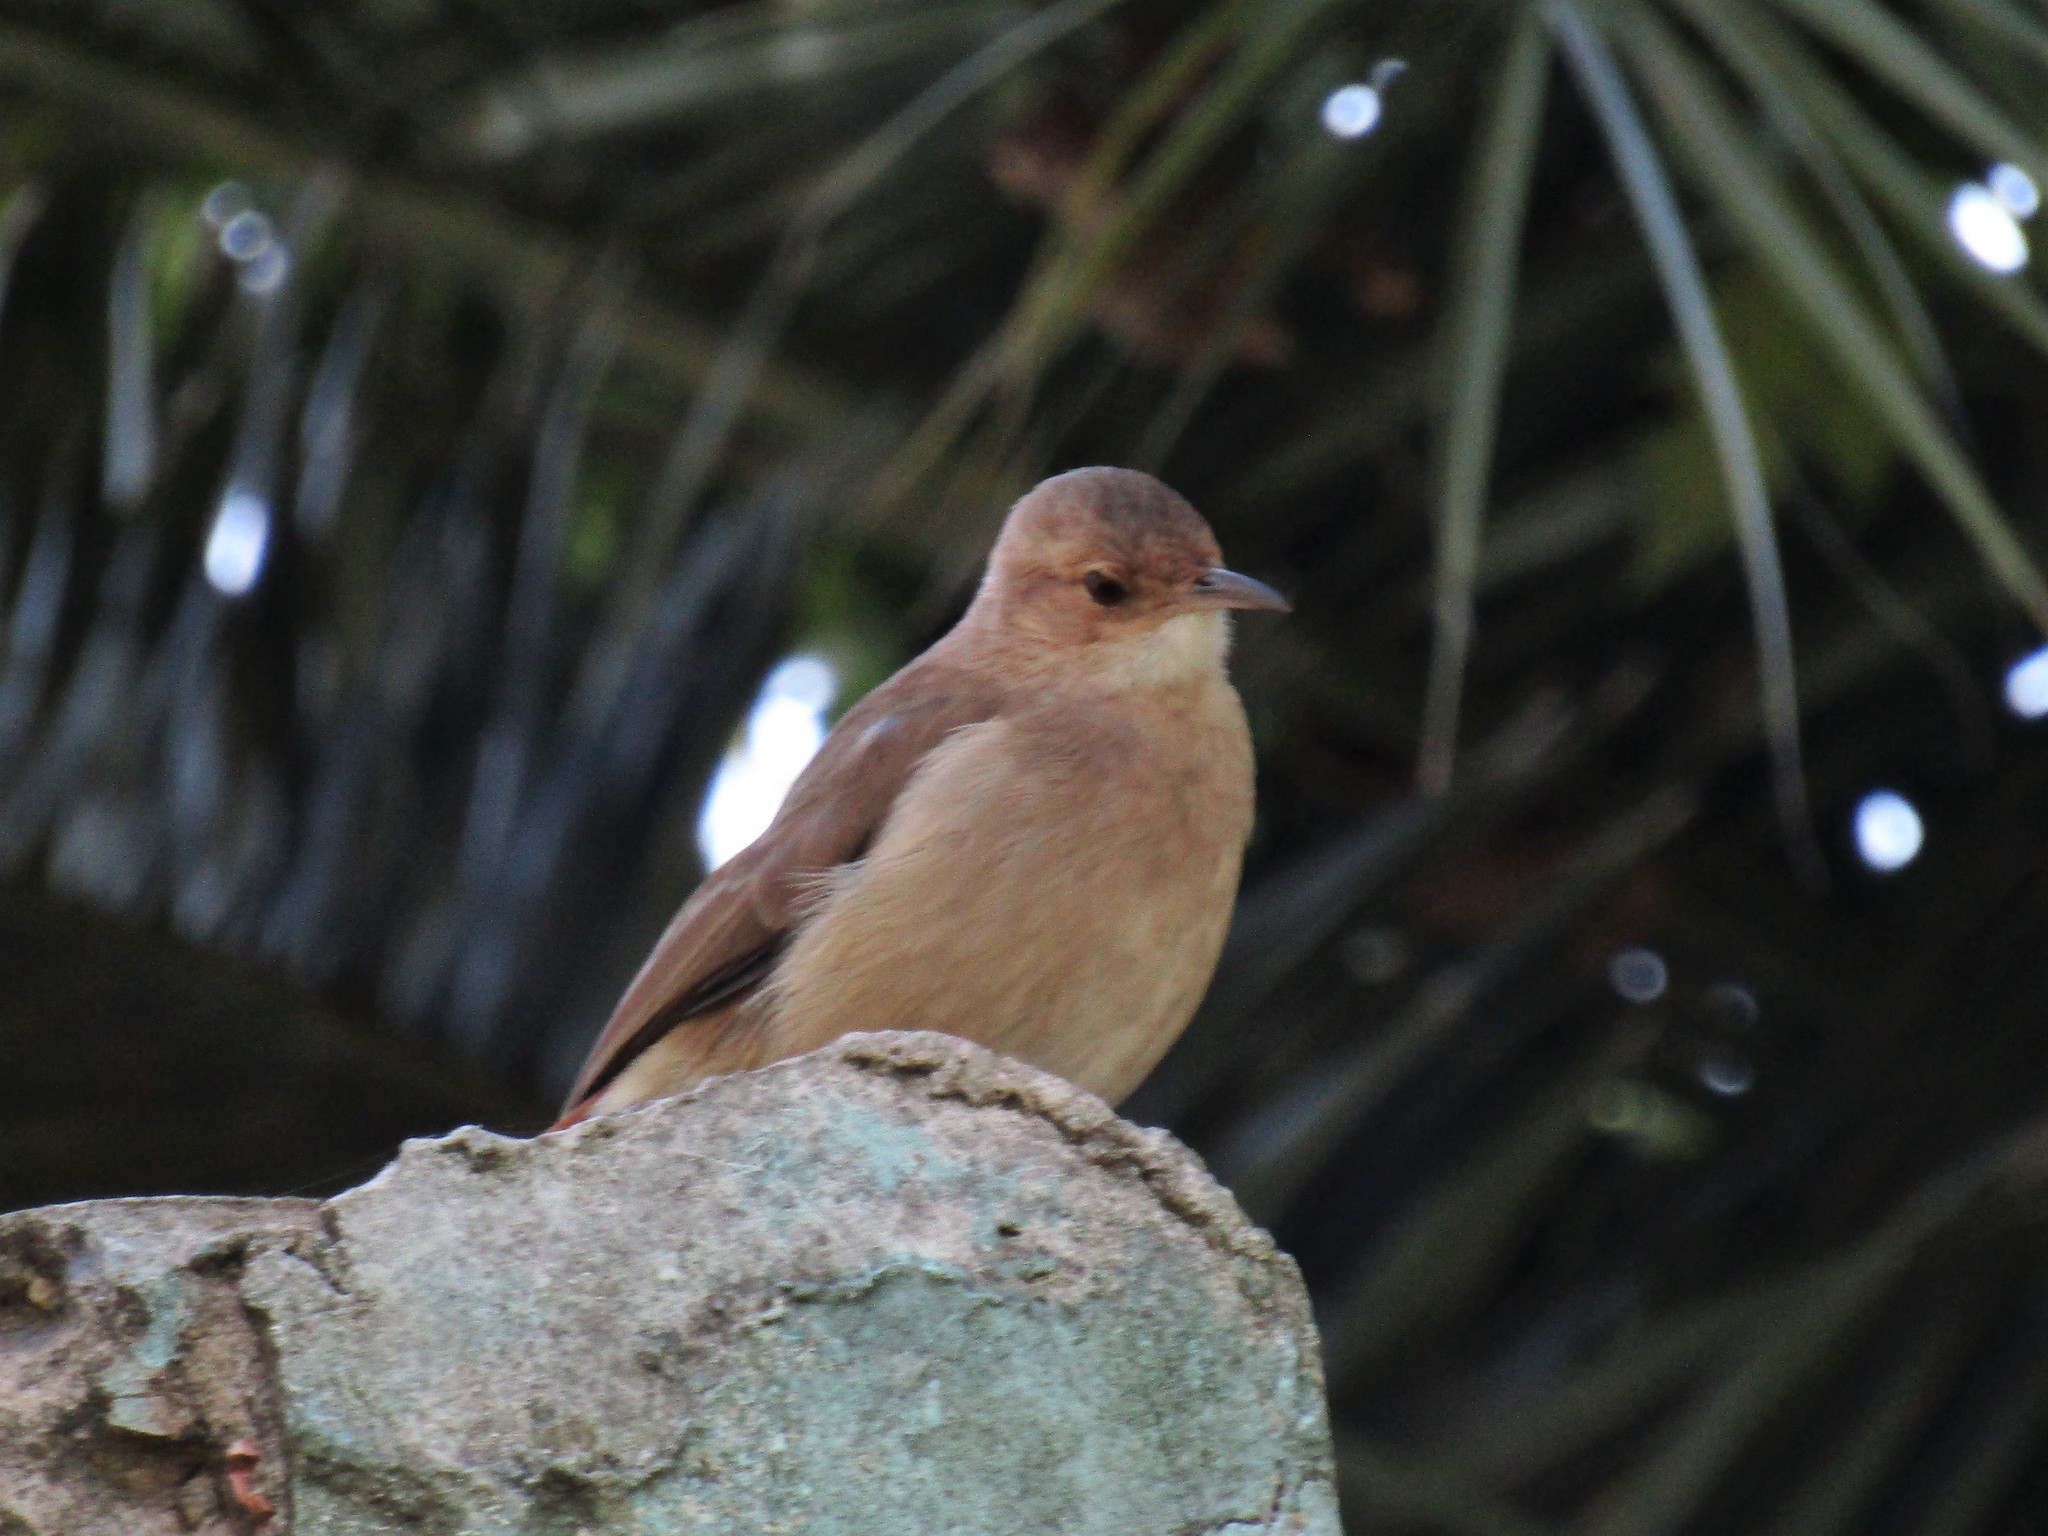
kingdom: Animalia
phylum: Chordata
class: Aves
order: Passeriformes
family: Furnariidae
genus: Furnarius
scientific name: Furnarius rufus
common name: Rufous hornero
